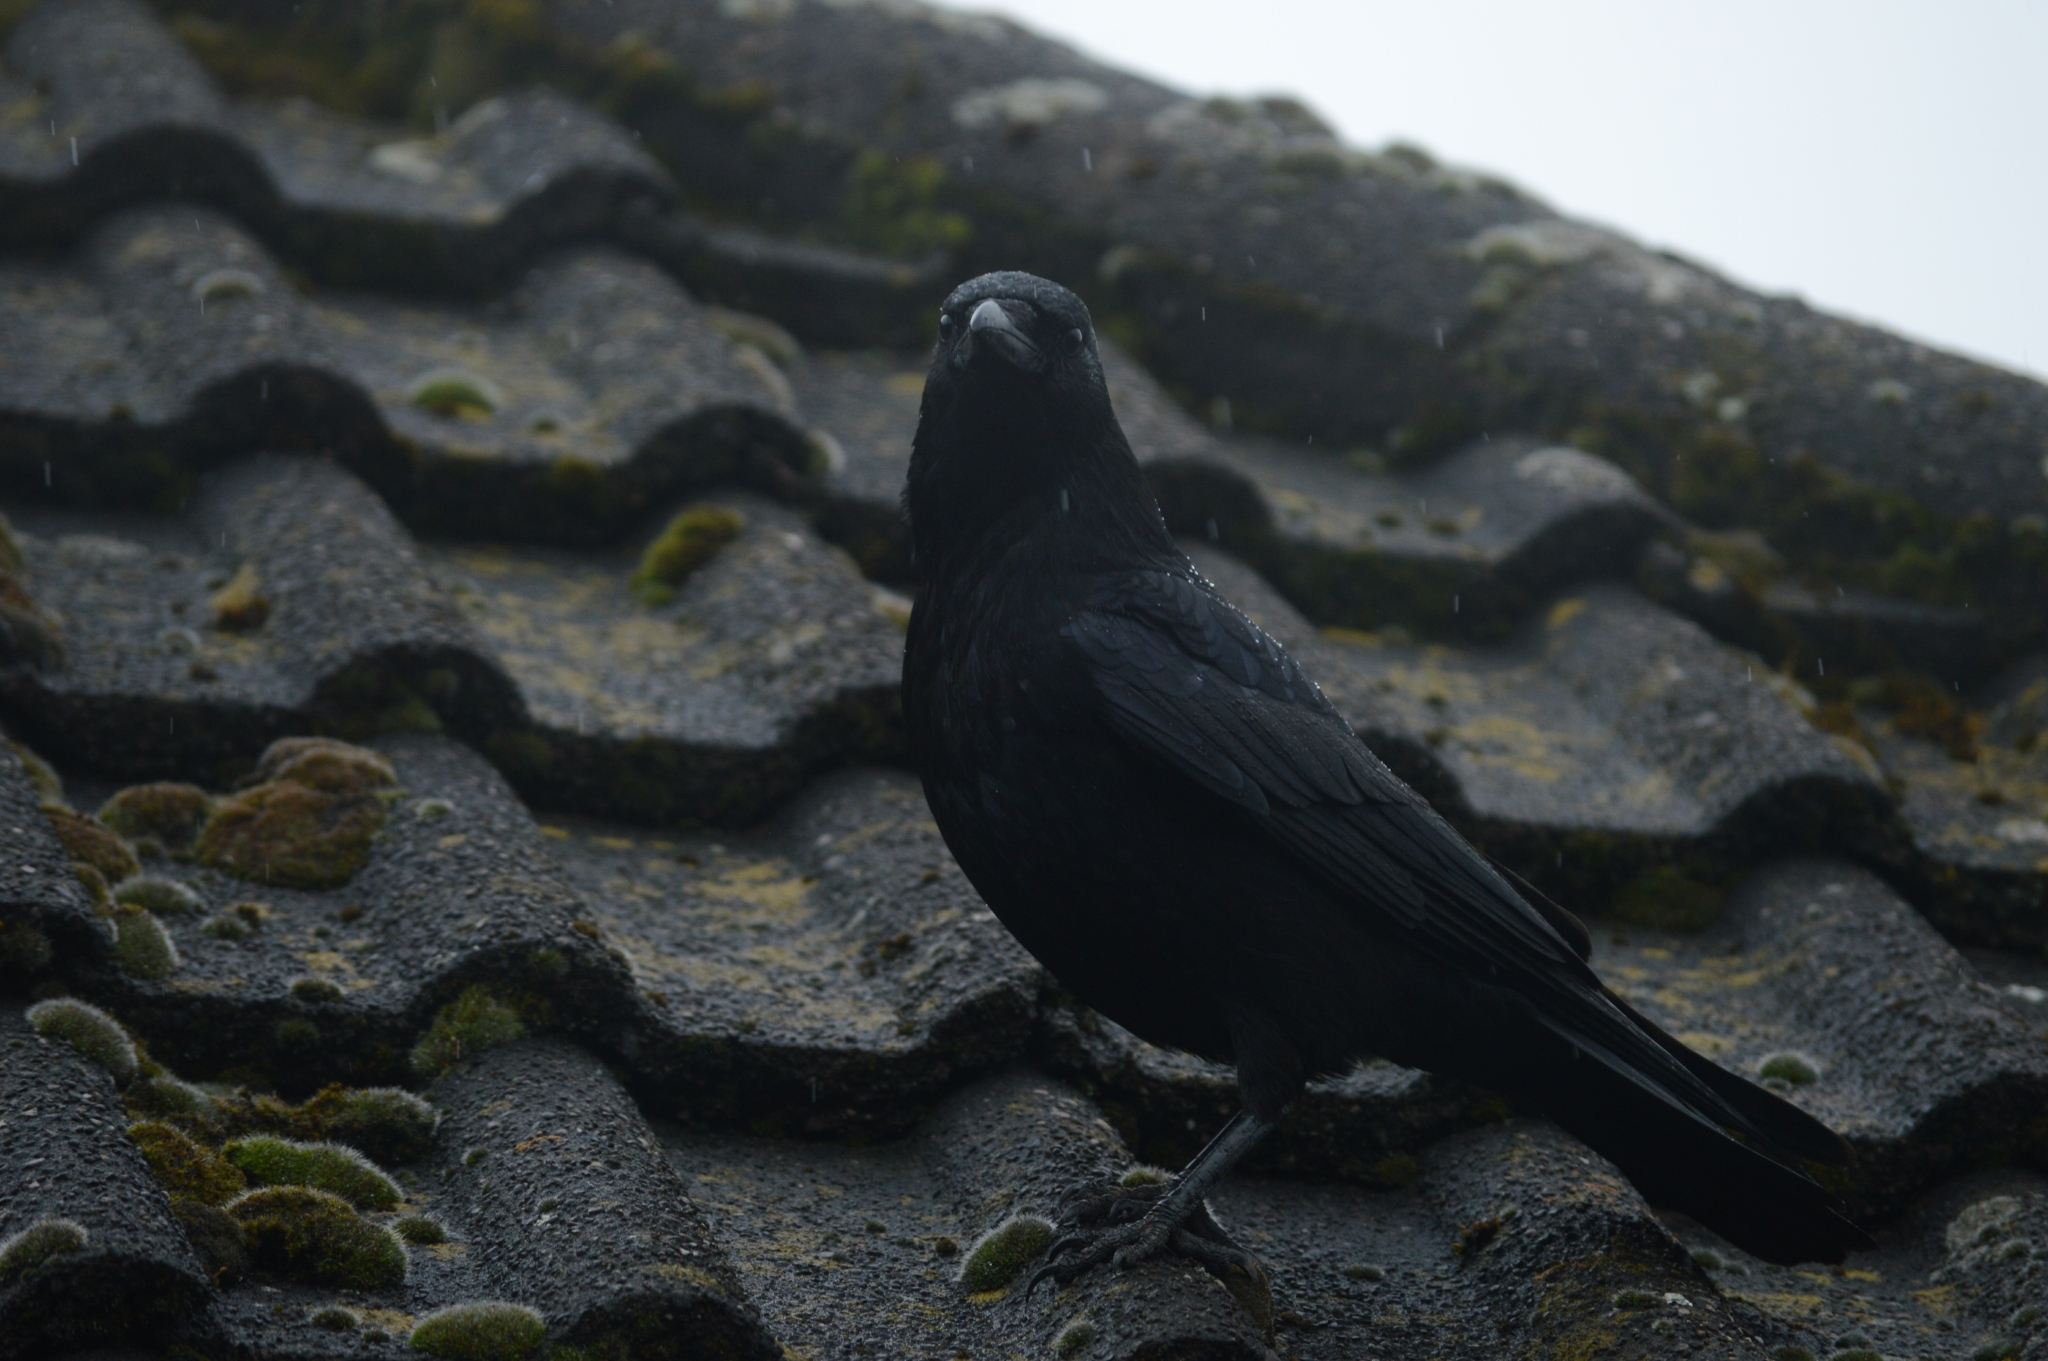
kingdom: Animalia
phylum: Chordata
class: Aves
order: Passeriformes
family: Corvidae
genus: Corvus
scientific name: Corvus corone
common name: Carrion crow
